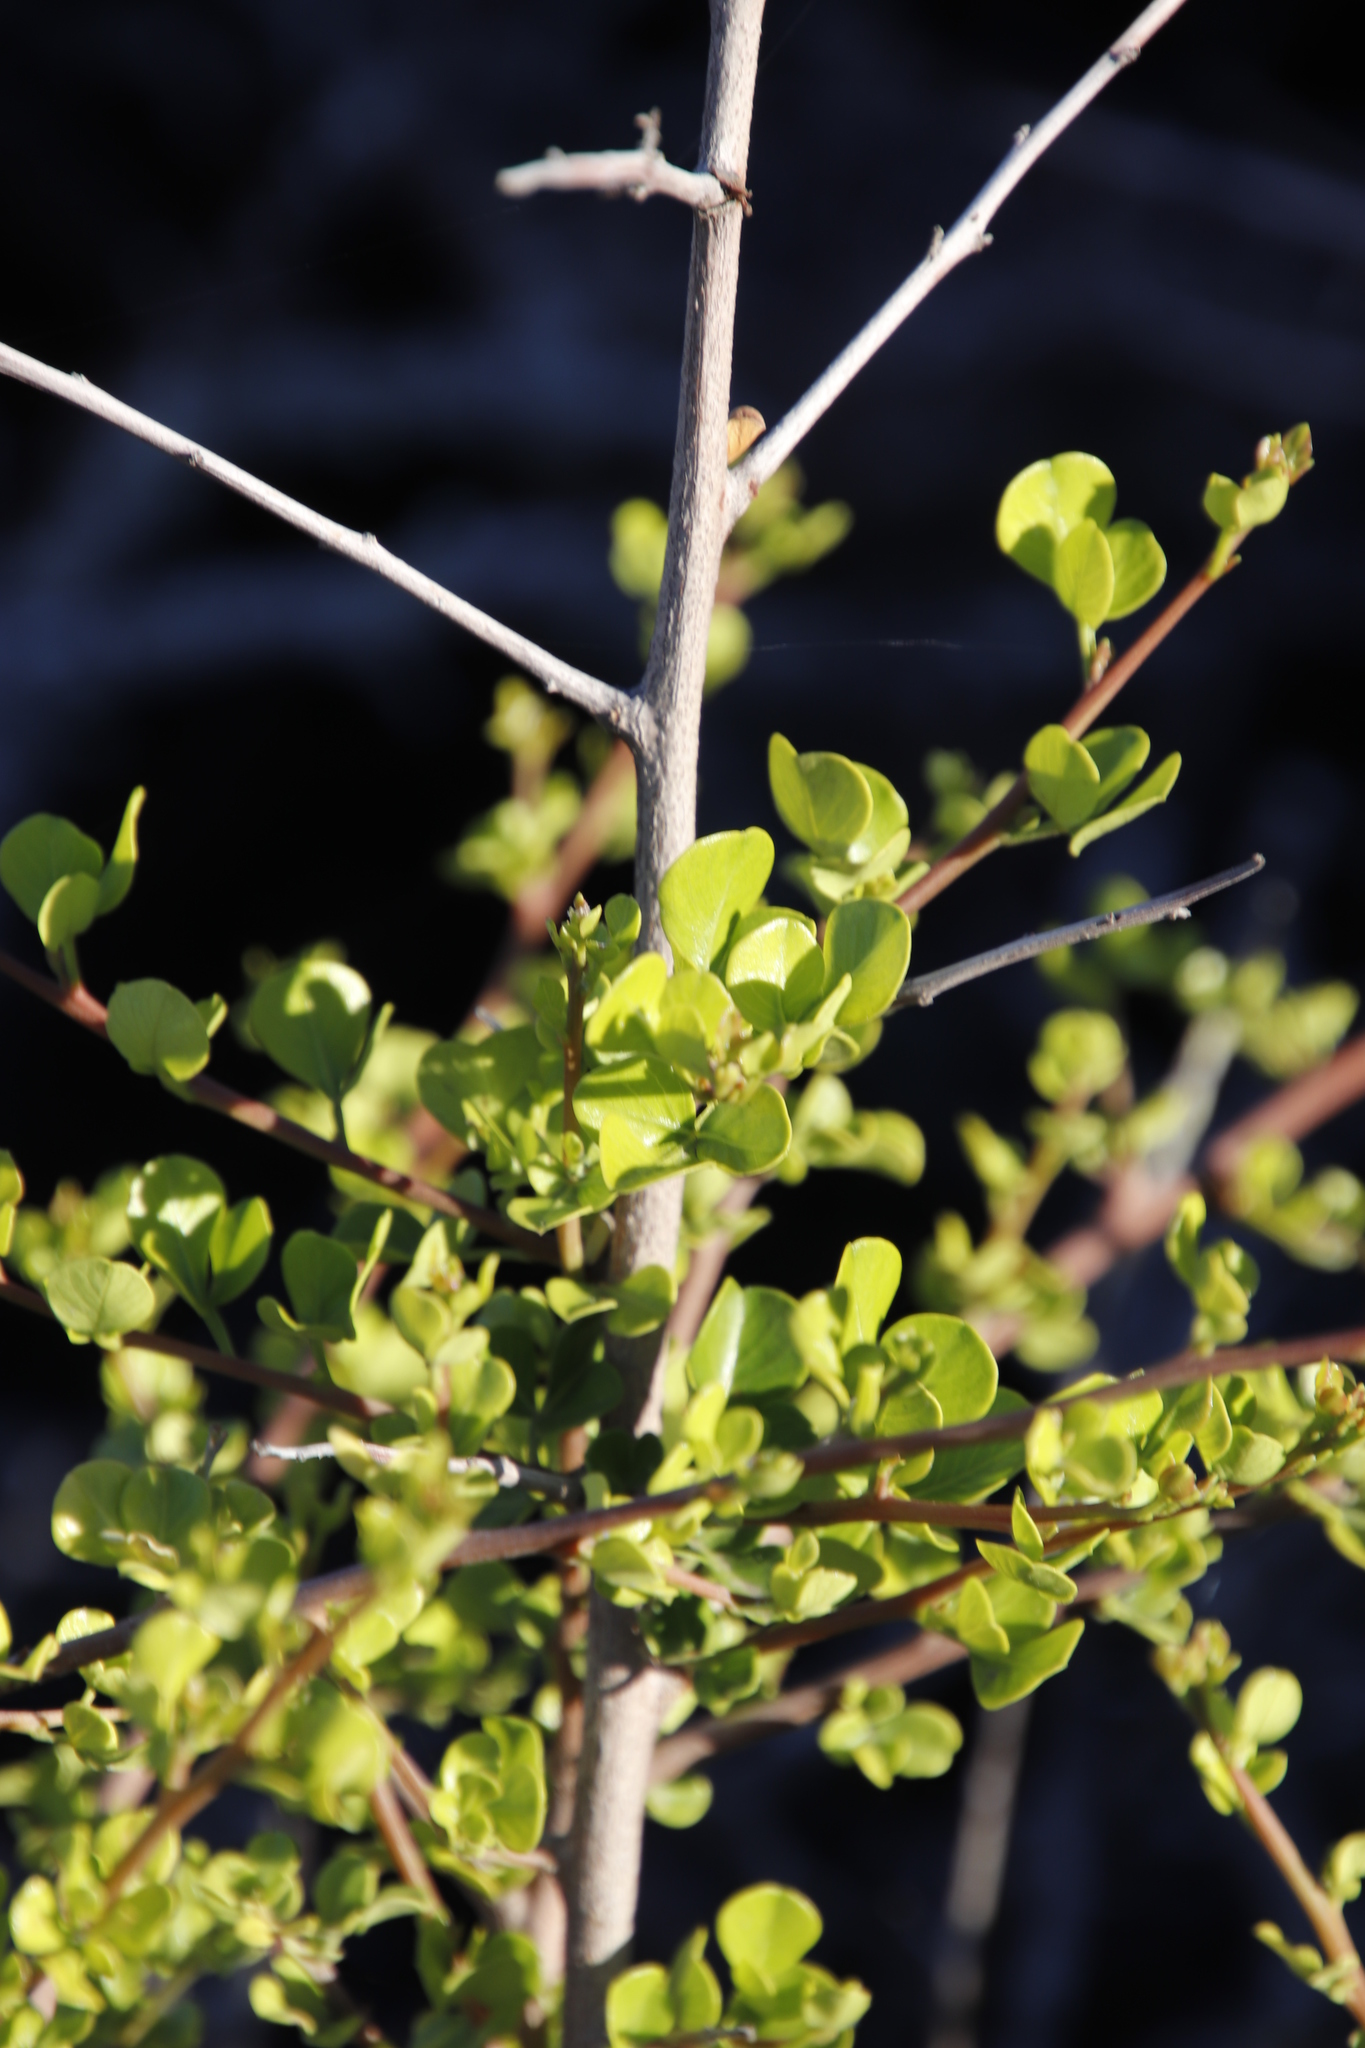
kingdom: Plantae
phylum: Tracheophyta
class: Magnoliopsida
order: Sapindales
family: Anacardiaceae
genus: Searsia
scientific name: Searsia glauca
